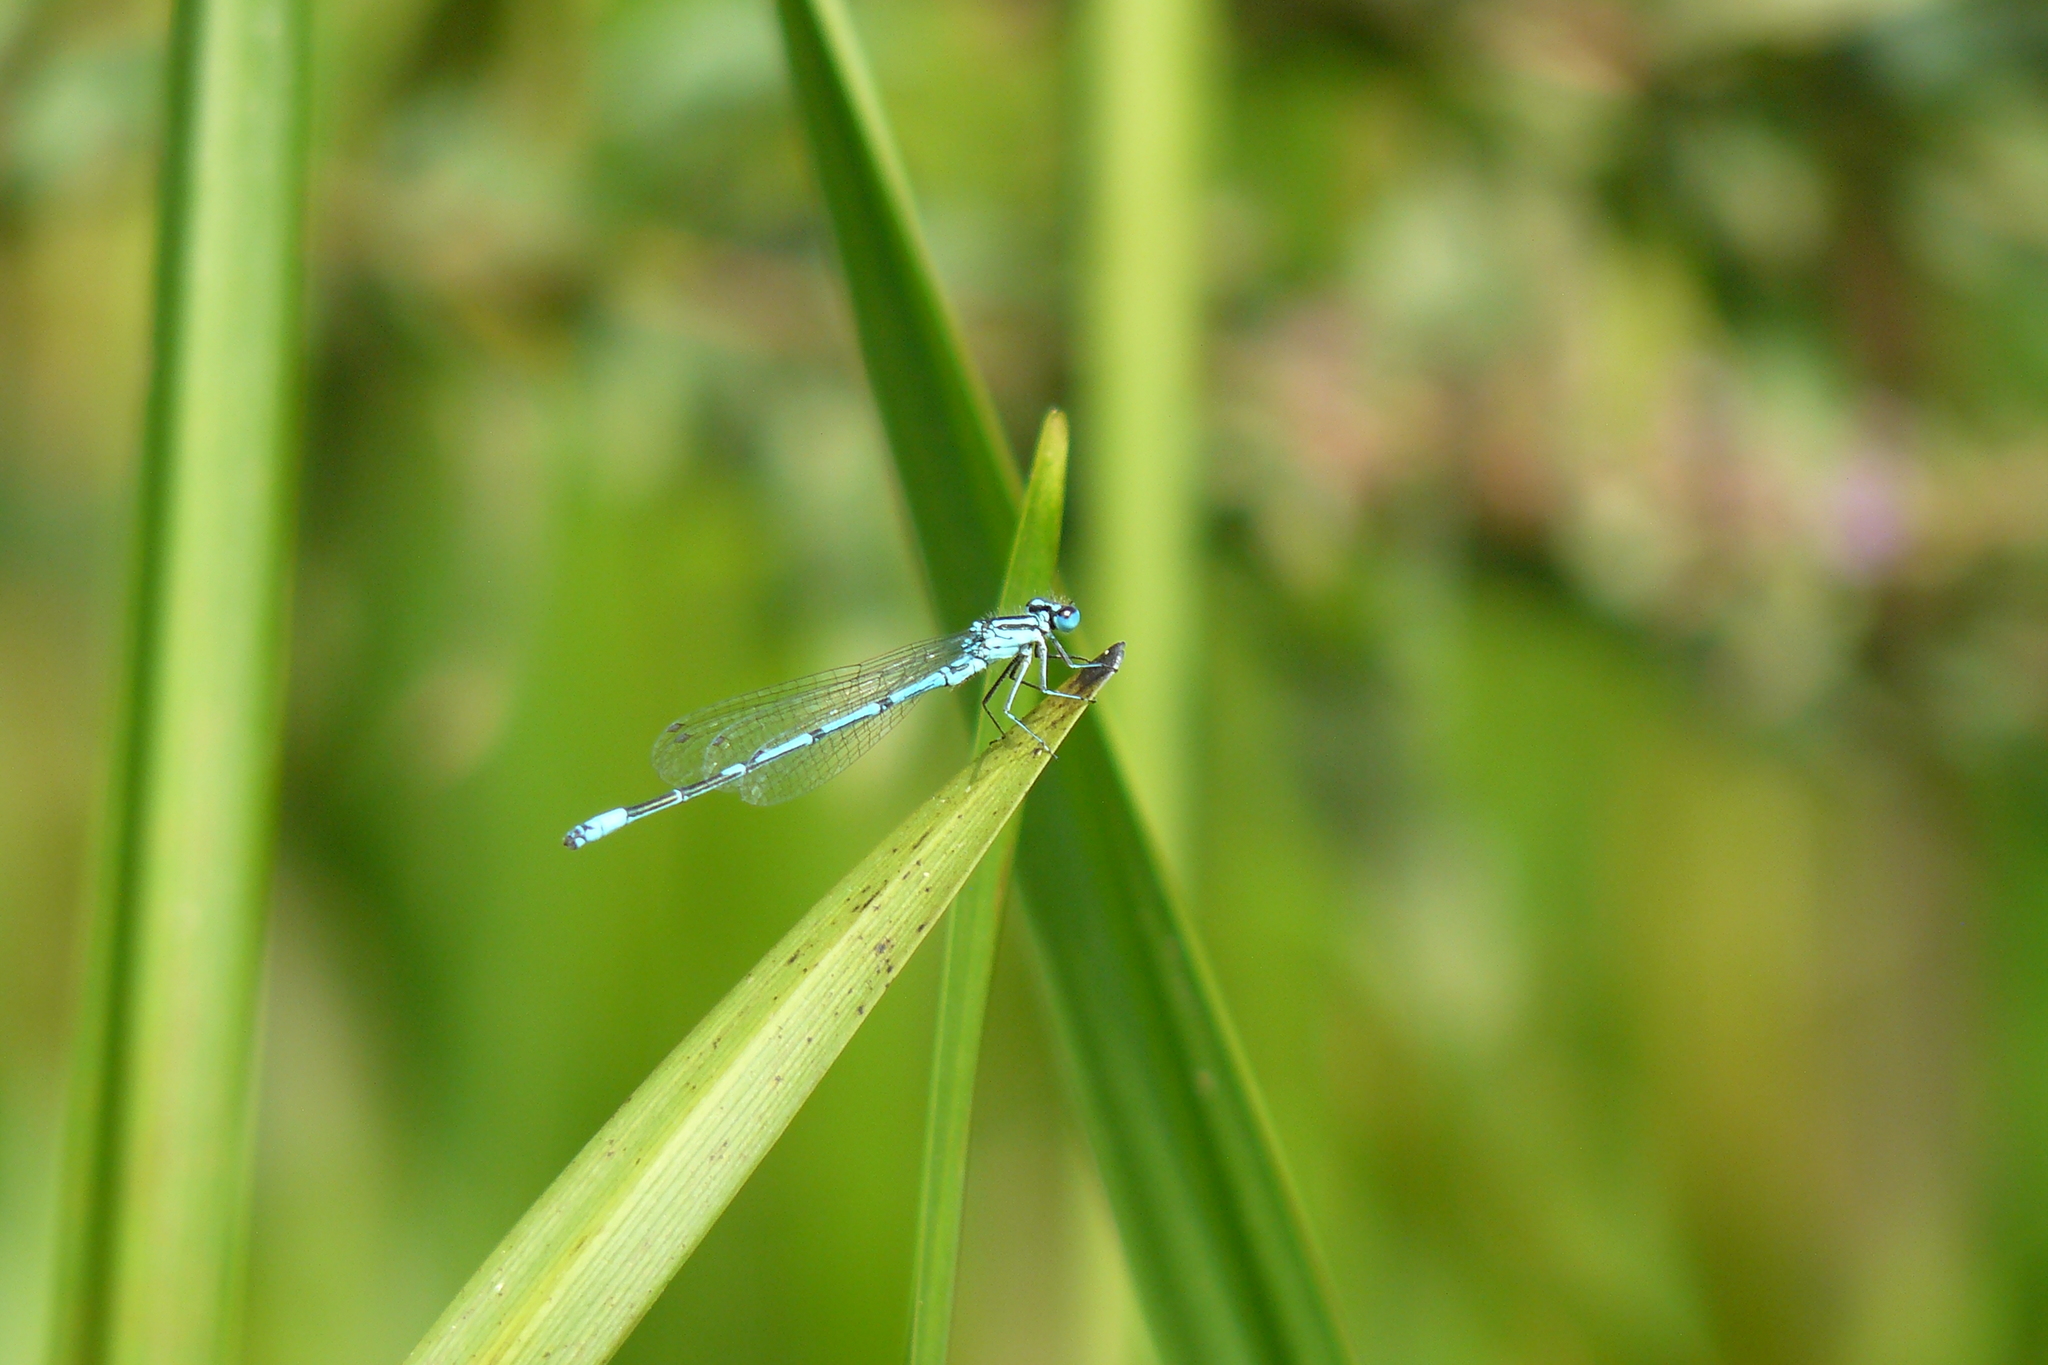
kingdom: Animalia
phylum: Arthropoda
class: Insecta
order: Odonata
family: Coenagrionidae
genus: Coenagrion
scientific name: Coenagrion puella
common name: Azure damselfly
